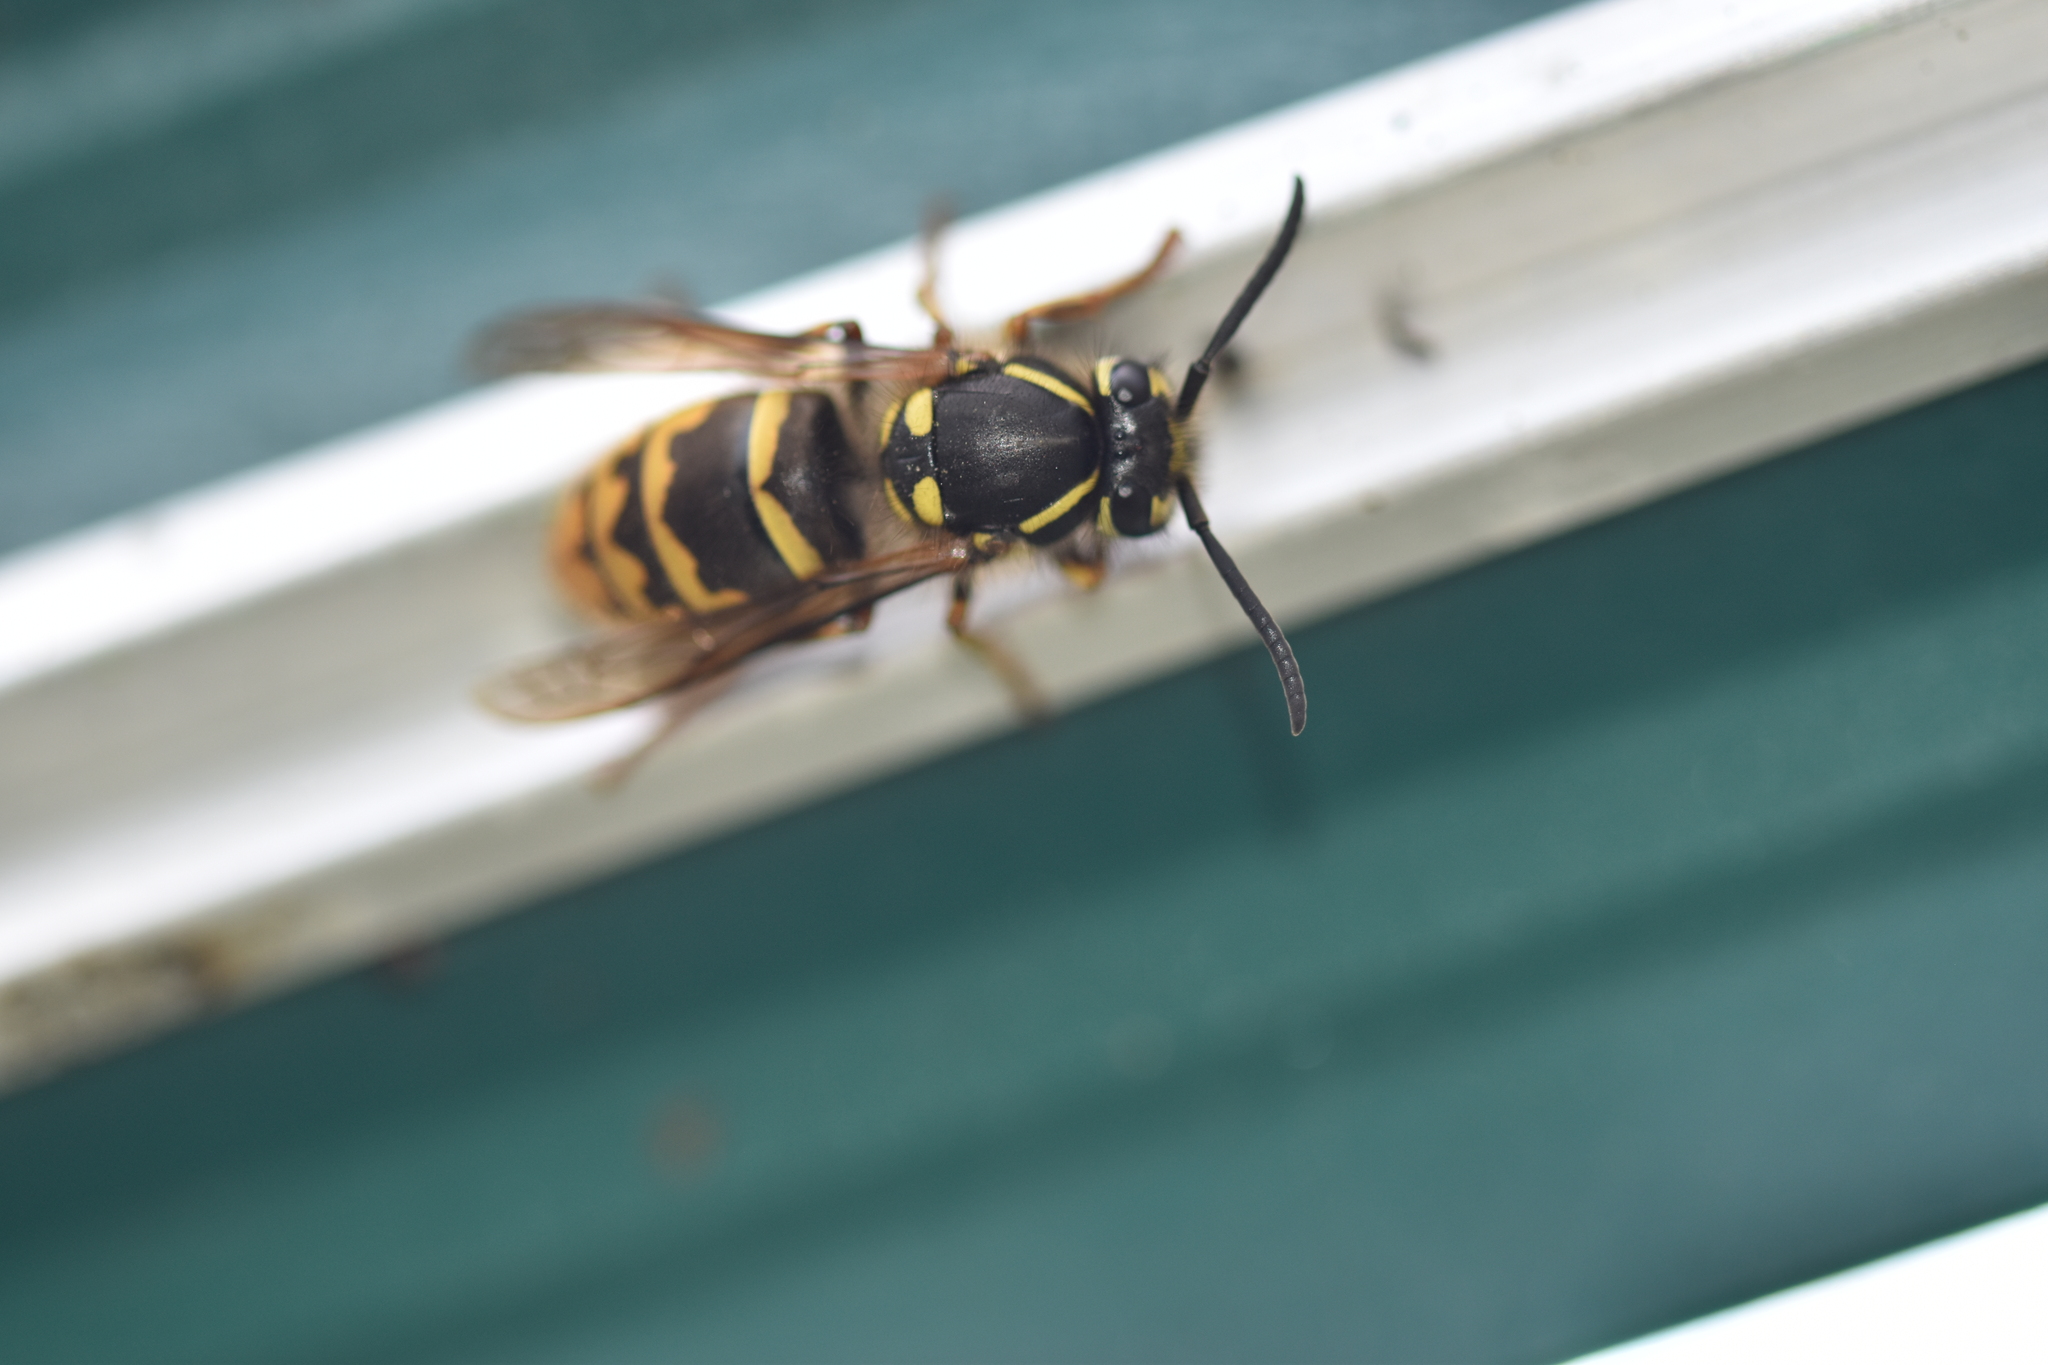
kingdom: Animalia
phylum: Arthropoda
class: Insecta
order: Hymenoptera
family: Vespidae
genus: Vespula
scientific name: Vespula vulgaris
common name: Common wasp
